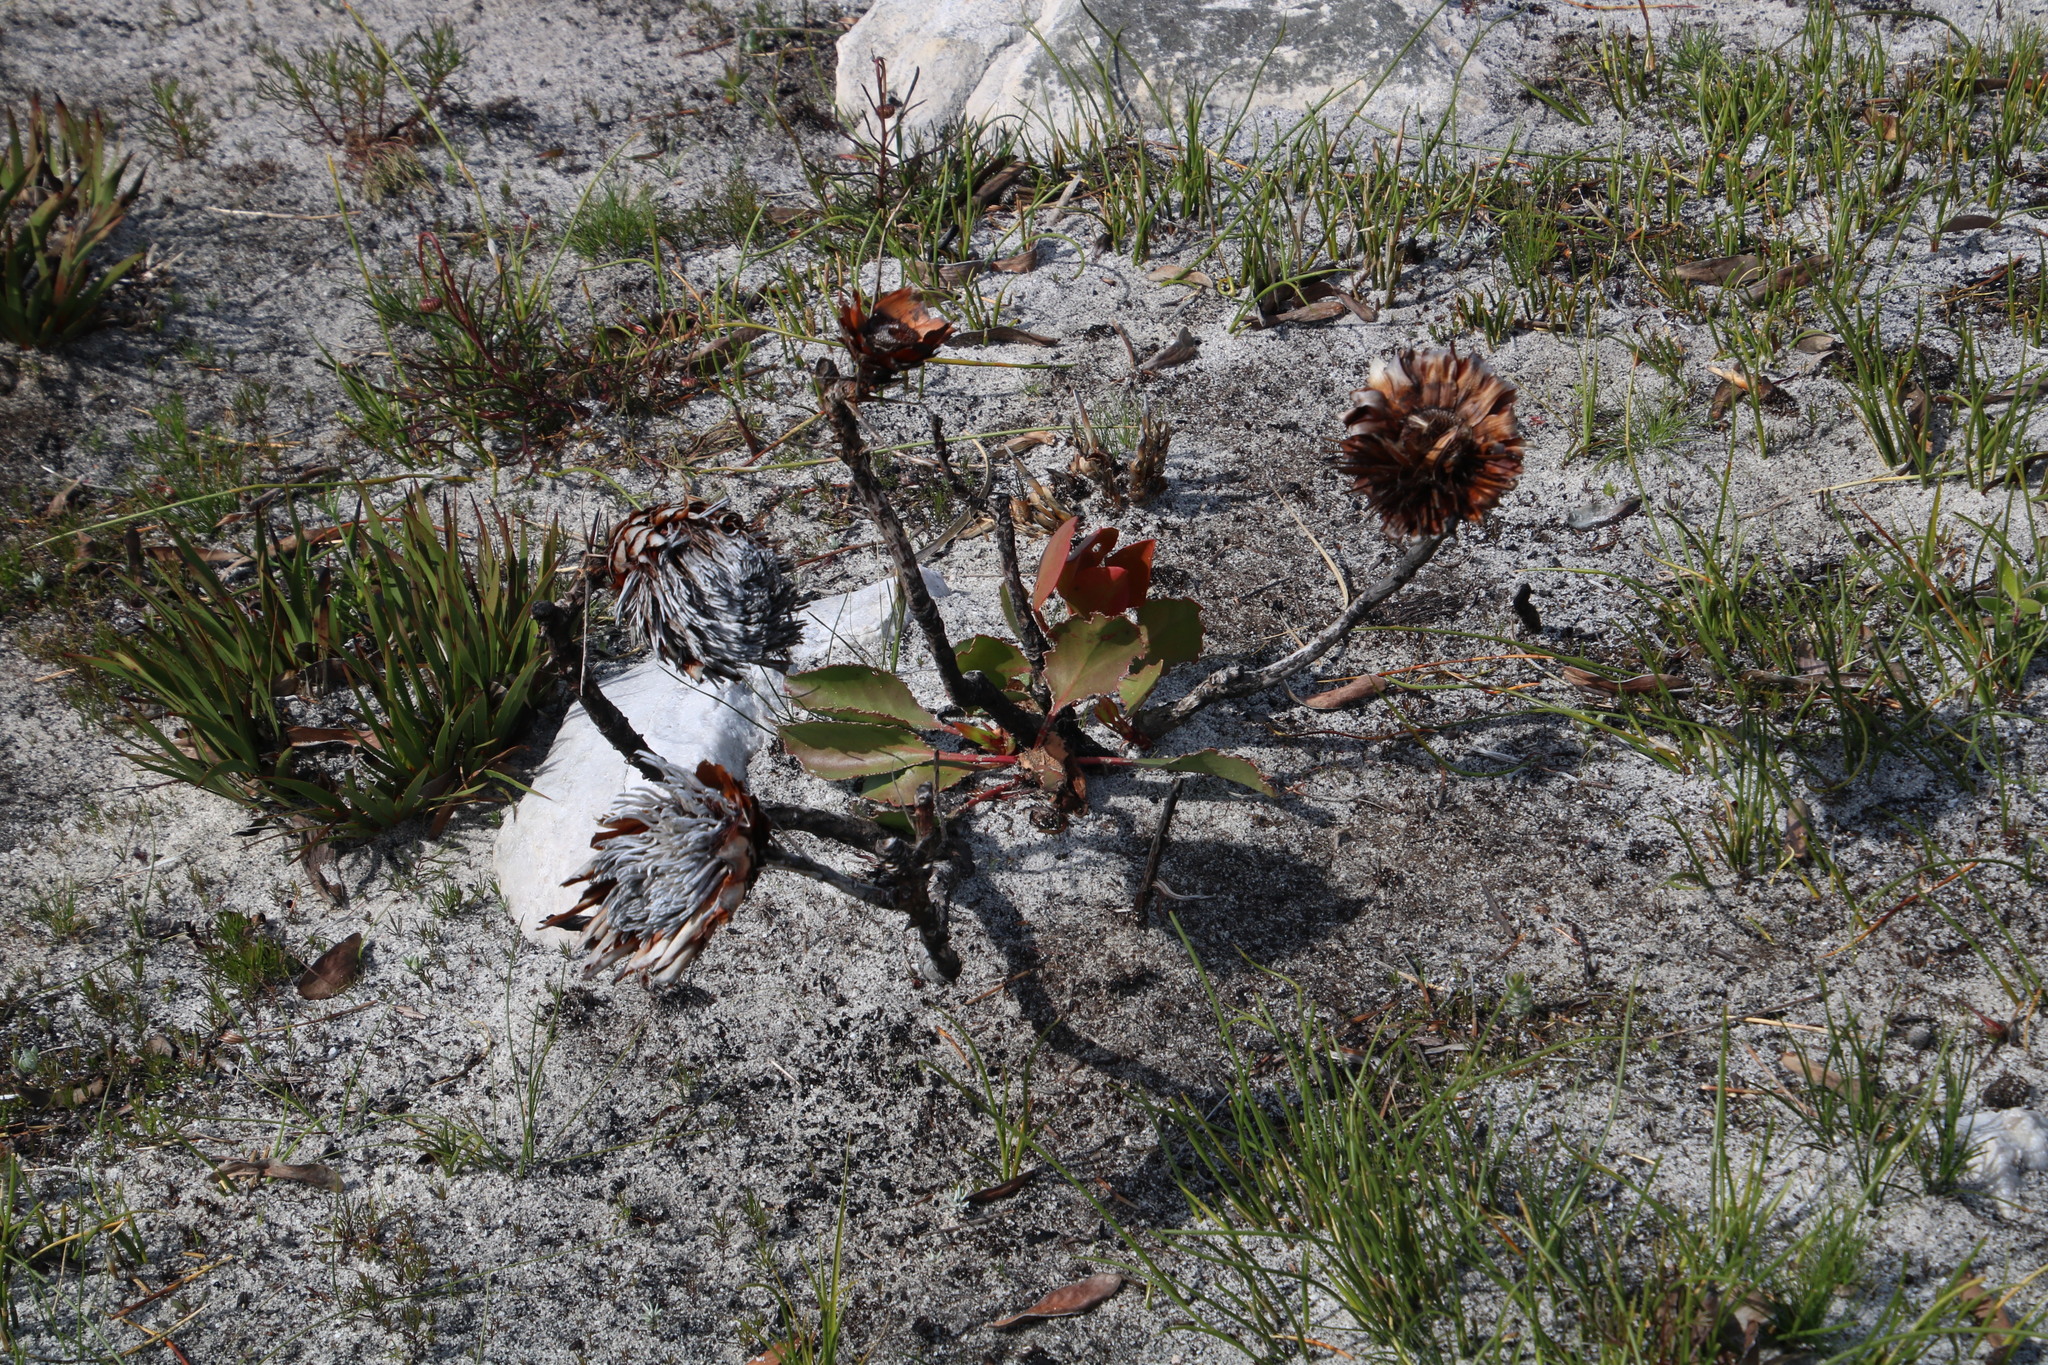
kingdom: Plantae
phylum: Tracheophyta
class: Magnoliopsida
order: Proteales
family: Proteaceae
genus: Protea
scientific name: Protea cynaroides
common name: King protea
